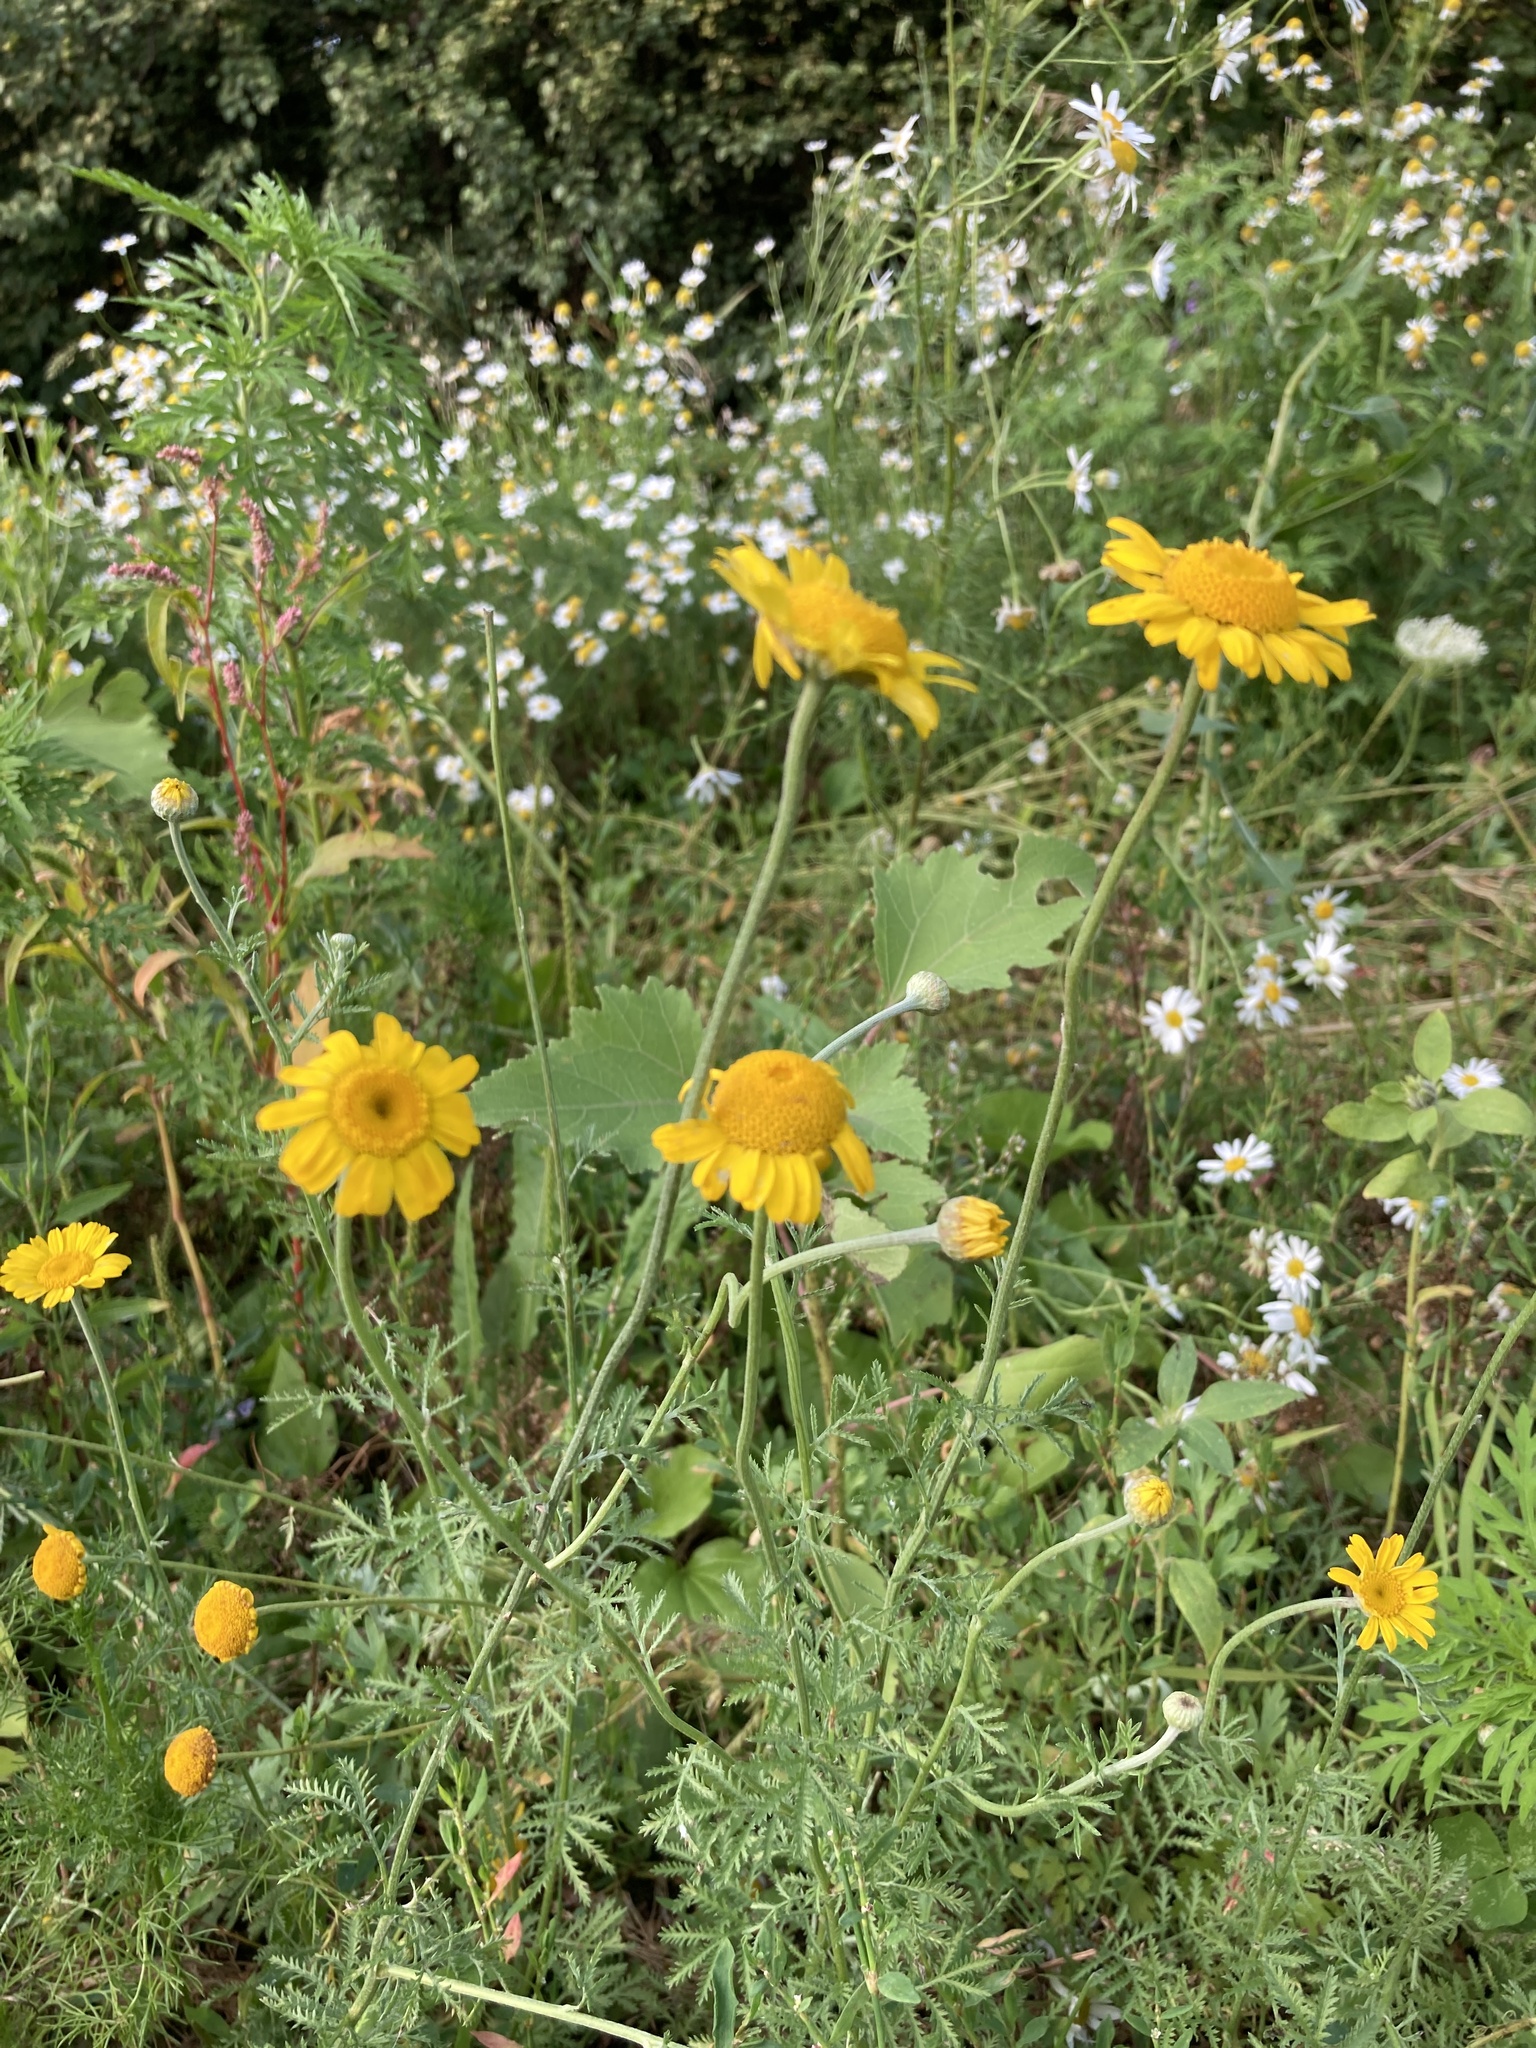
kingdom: Plantae
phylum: Tracheophyta
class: Magnoliopsida
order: Asterales
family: Asteraceae
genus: Cota
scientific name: Cota tinctoria
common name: Golden chamomile
